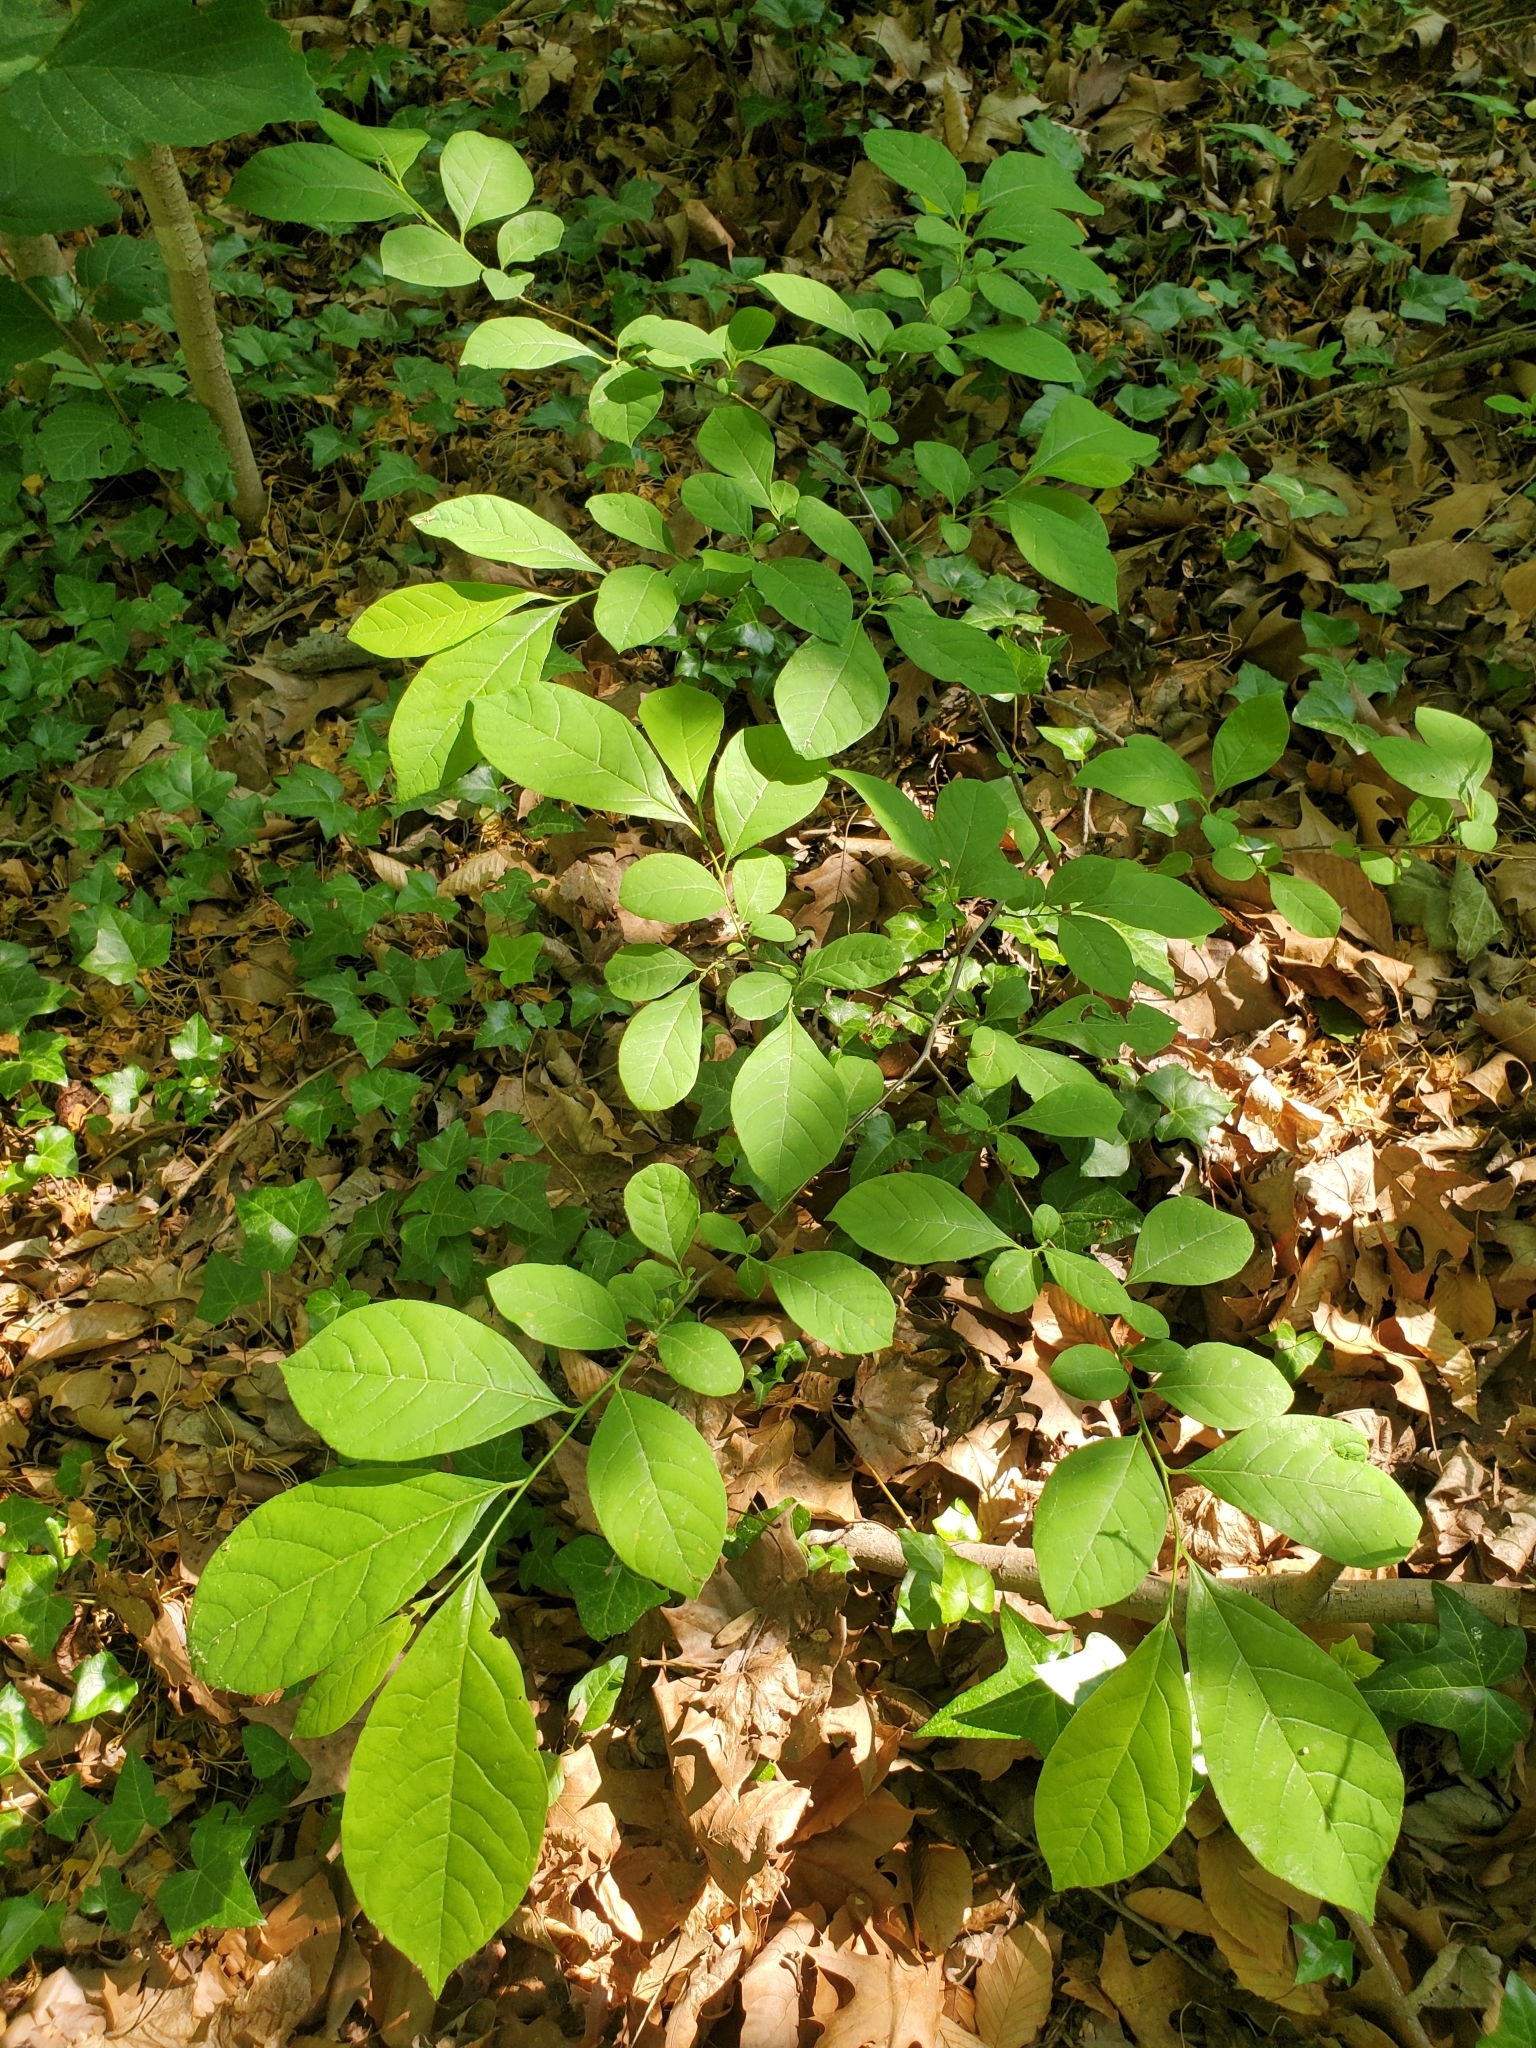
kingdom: Plantae
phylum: Tracheophyta
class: Magnoliopsida
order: Laurales
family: Lauraceae
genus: Lindera
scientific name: Lindera benzoin
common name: Spicebush
